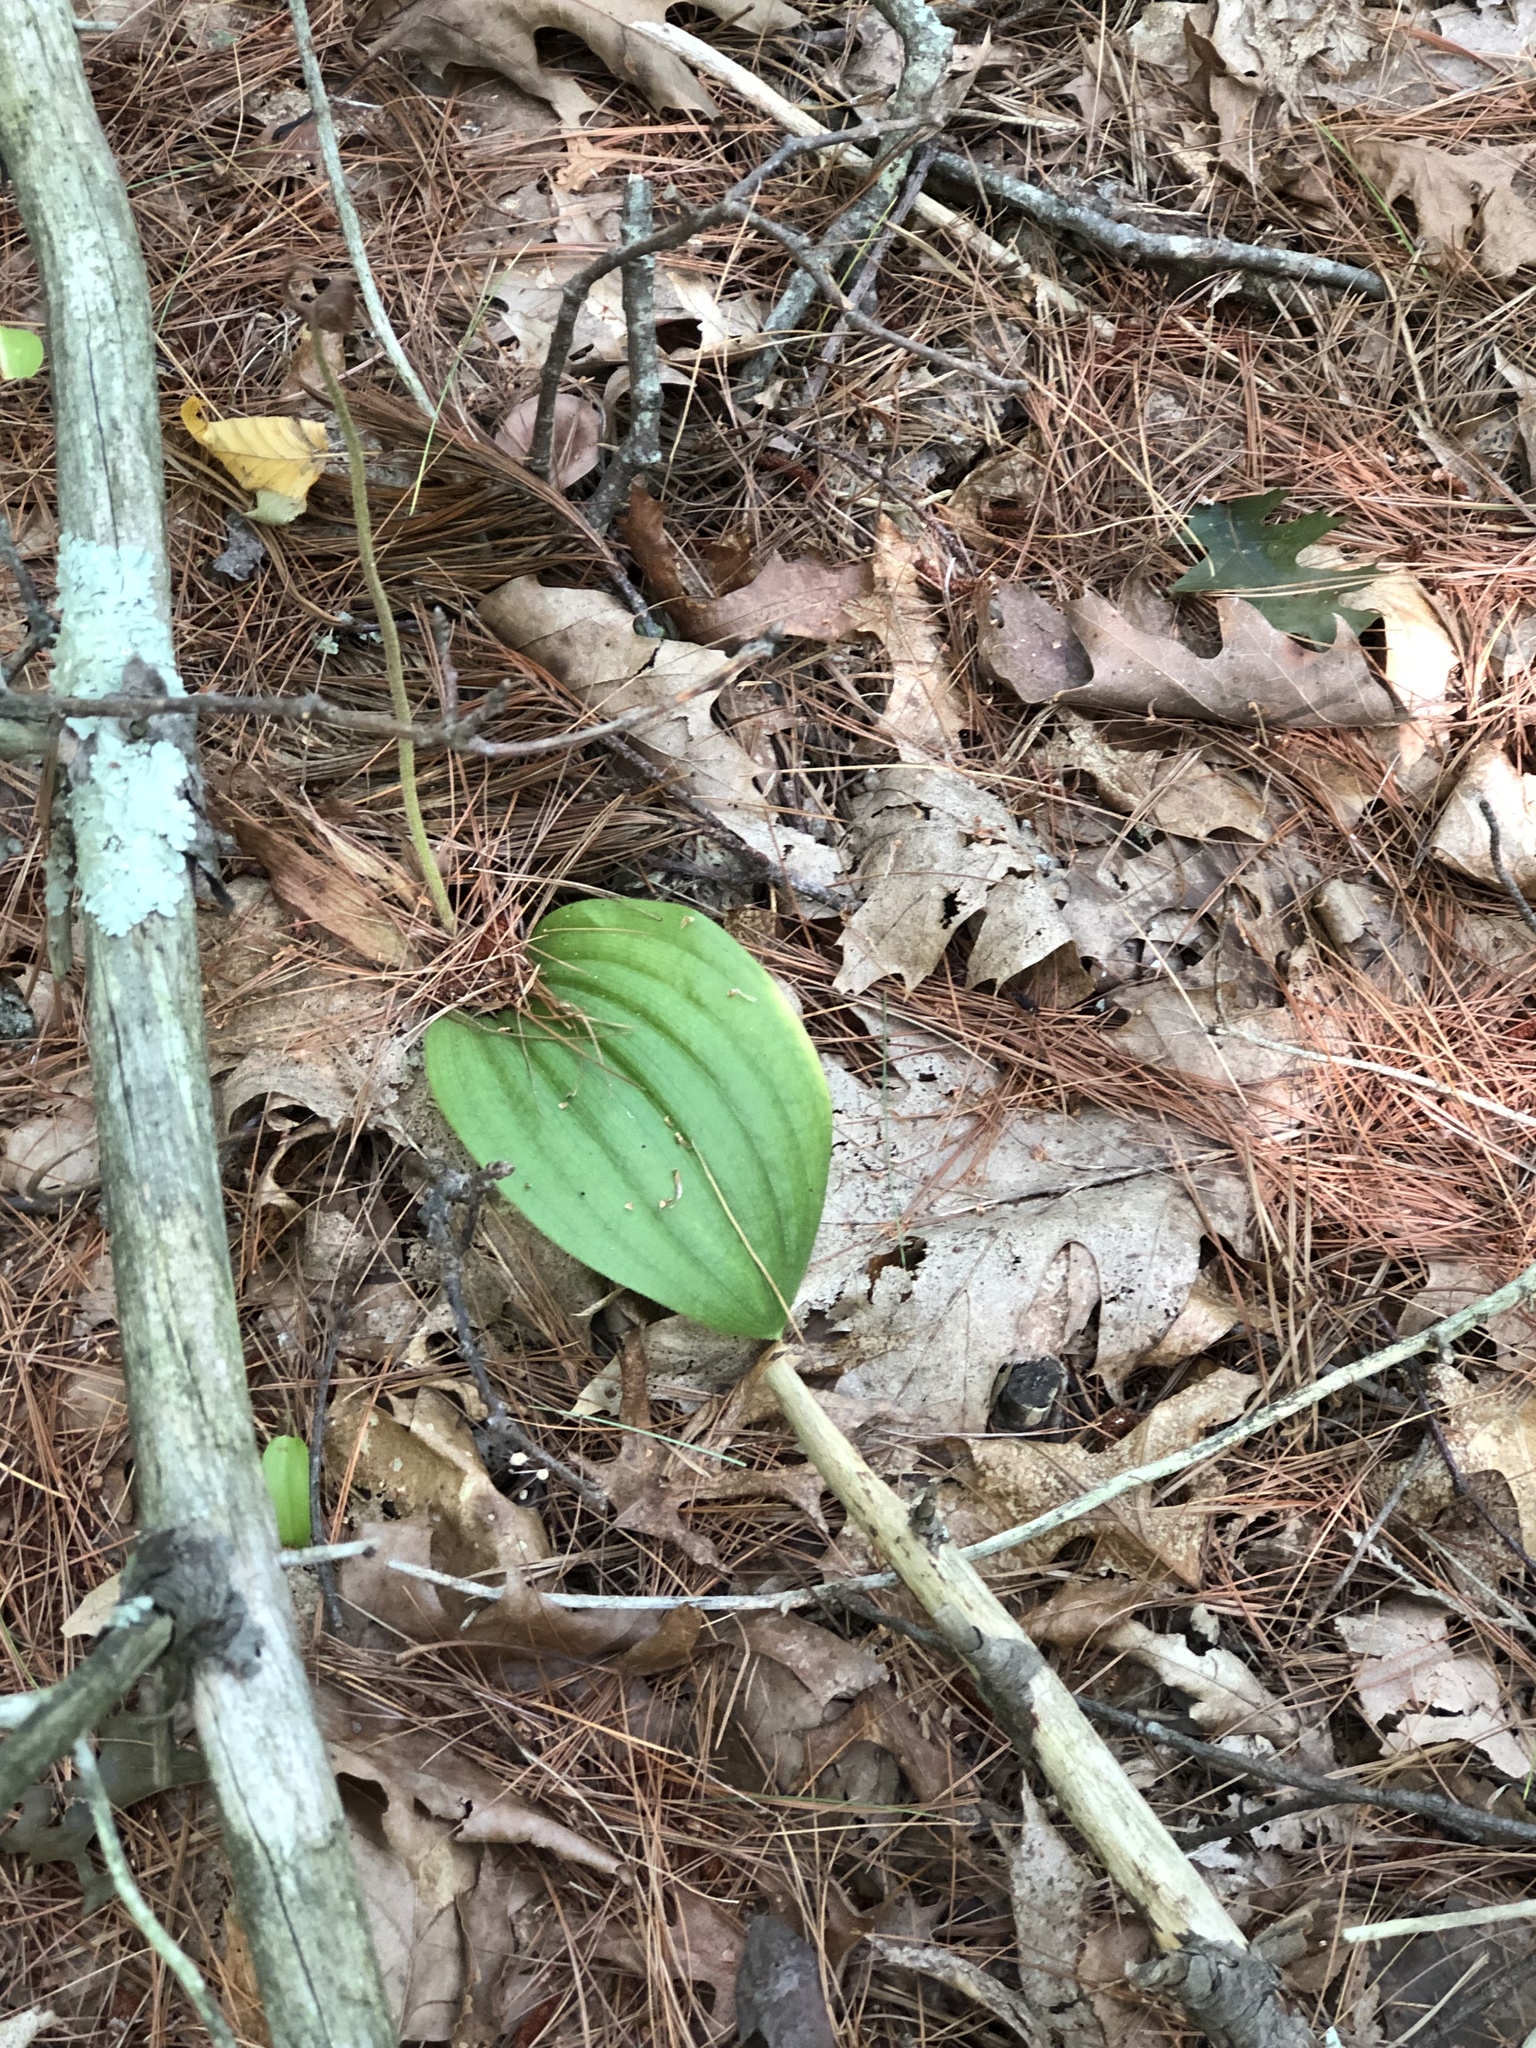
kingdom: Plantae
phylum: Tracheophyta
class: Liliopsida
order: Asparagales
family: Orchidaceae
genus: Cypripedium
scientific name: Cypripedium acaule
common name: Pink lady's-slipper
